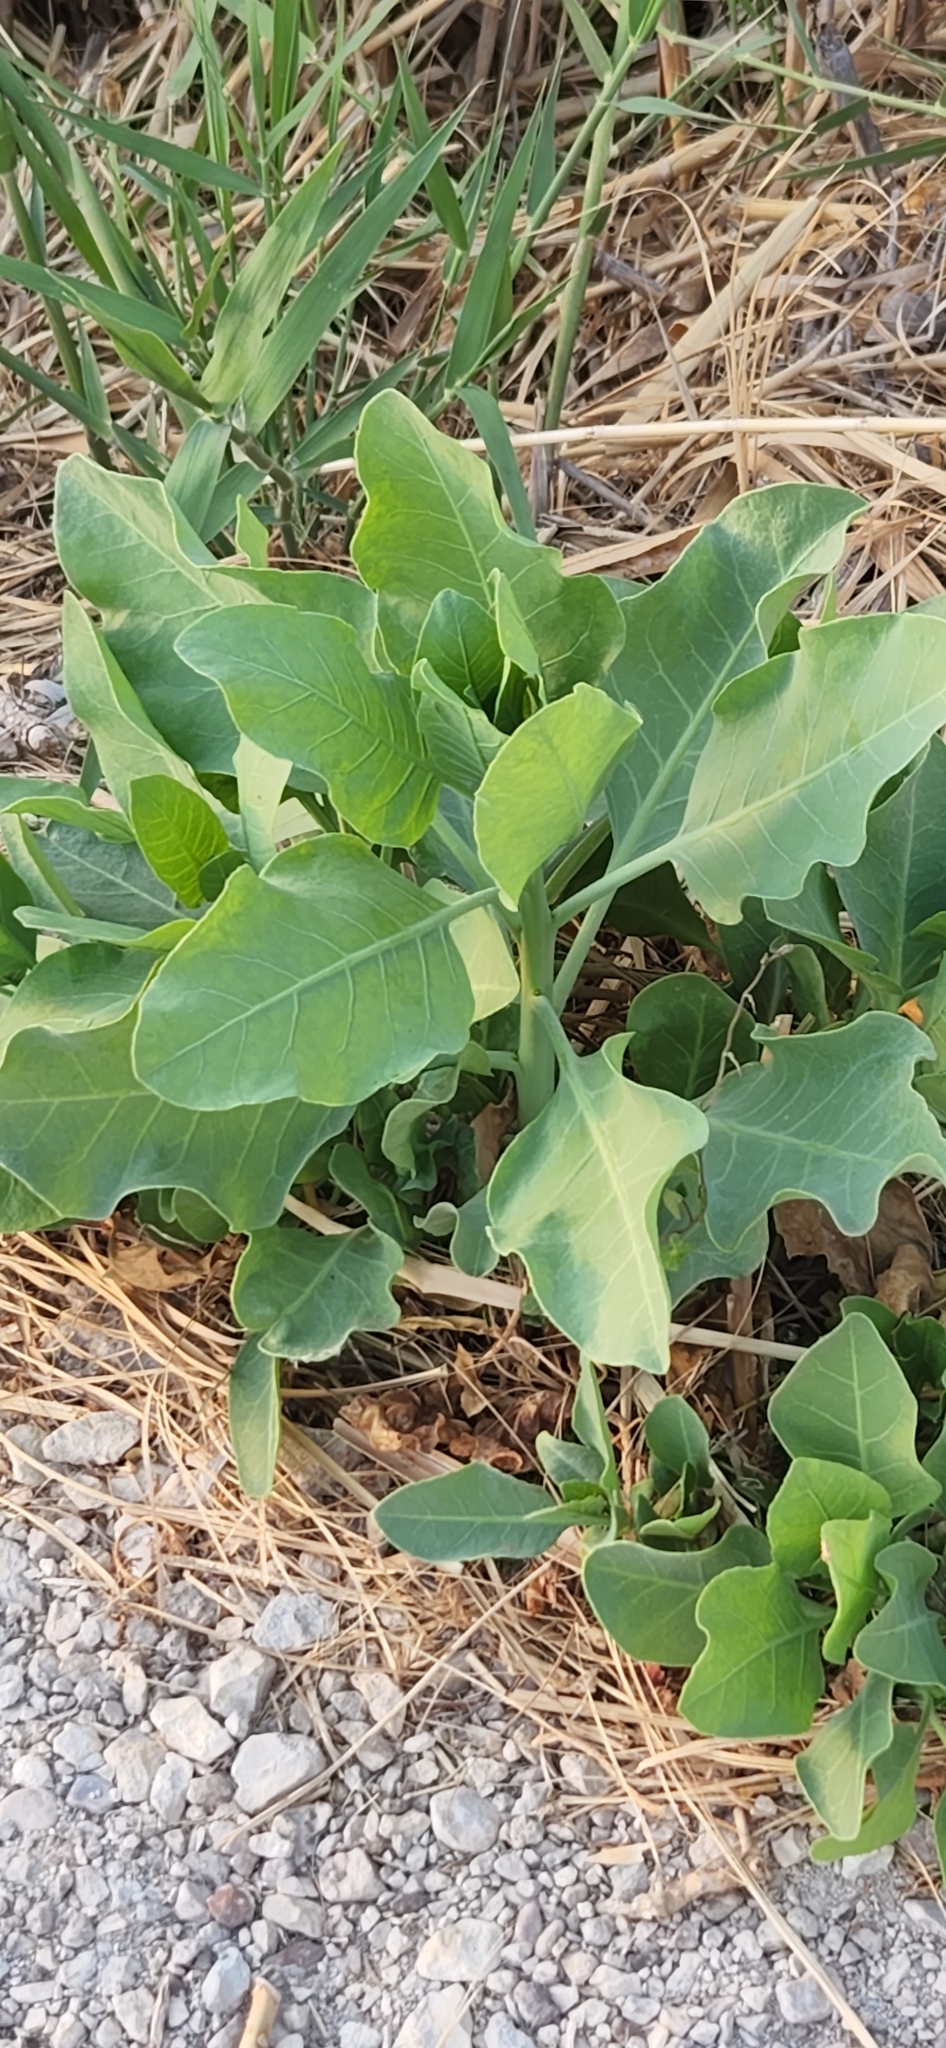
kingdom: Plantae
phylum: Tracheophyta
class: Magnoliopsida
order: Solanales
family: Solanaceae
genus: Nicotiana
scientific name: Nicotiana glauca
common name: Tree tobacco
